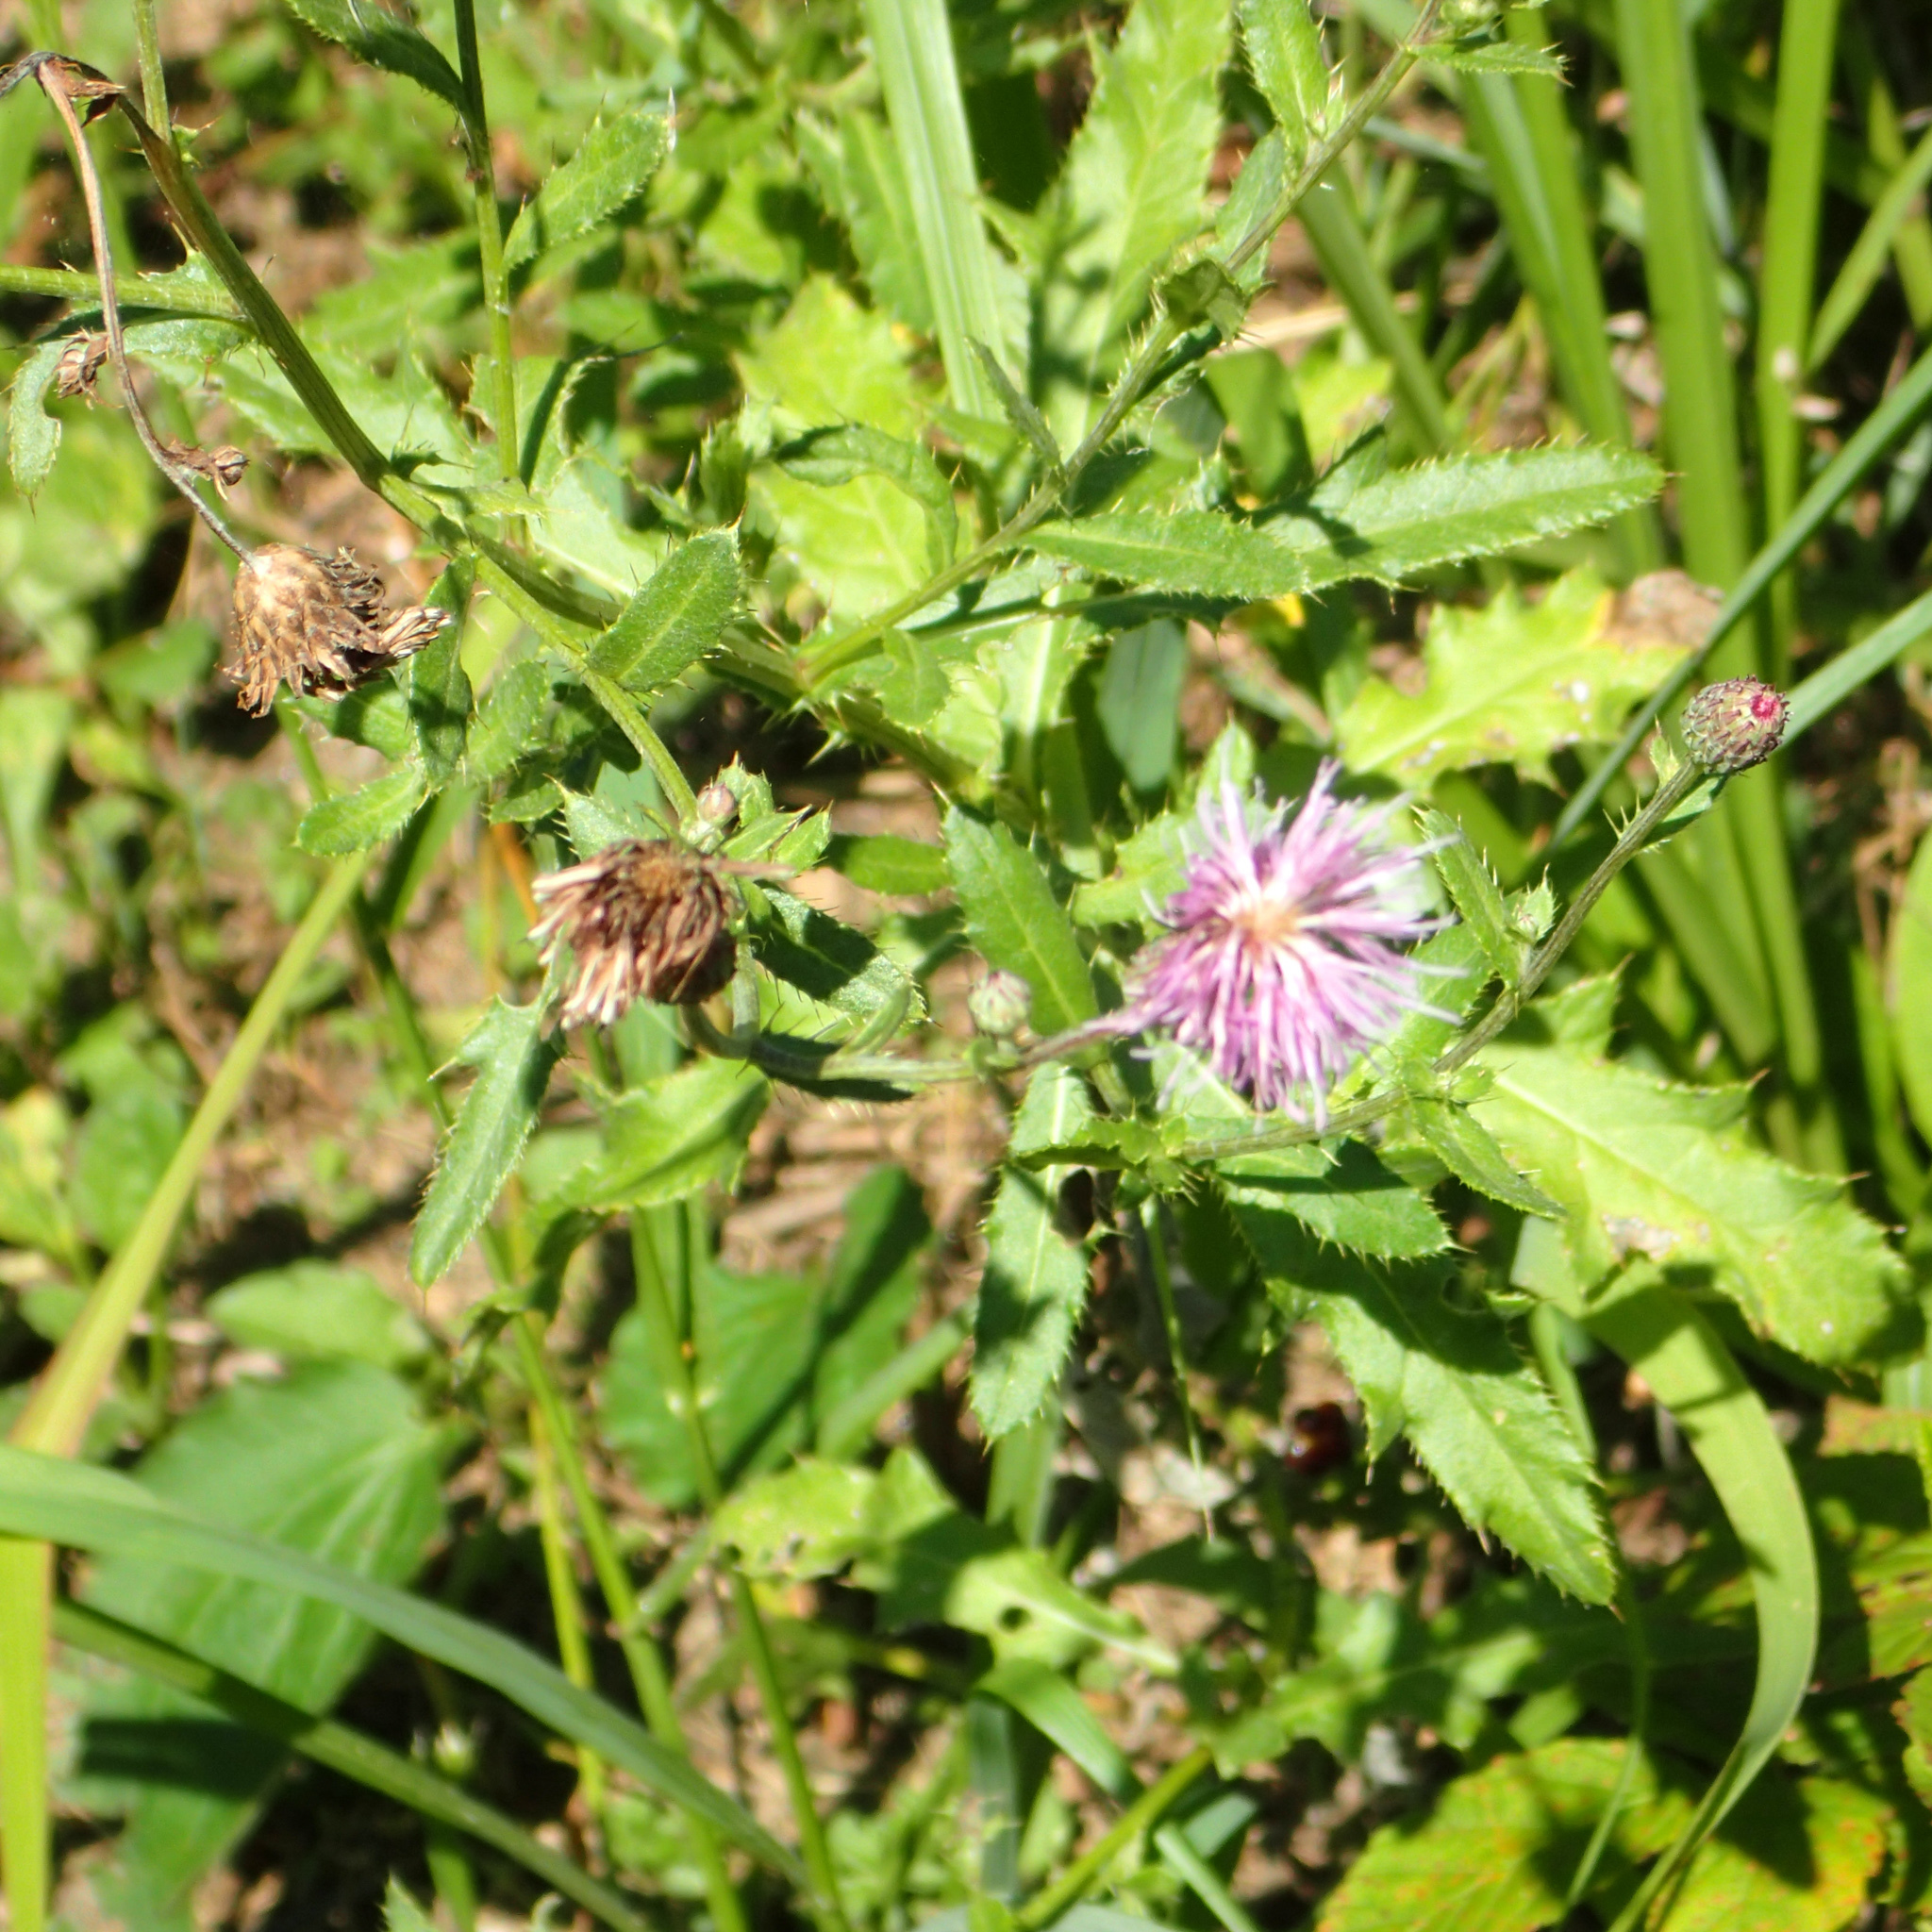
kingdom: Plantae
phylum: Tracheophyta
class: Magnoliopsida
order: Asterales
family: Asteraceae
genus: Cirsium
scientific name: Cirsium arvense
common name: Creeping thistle
